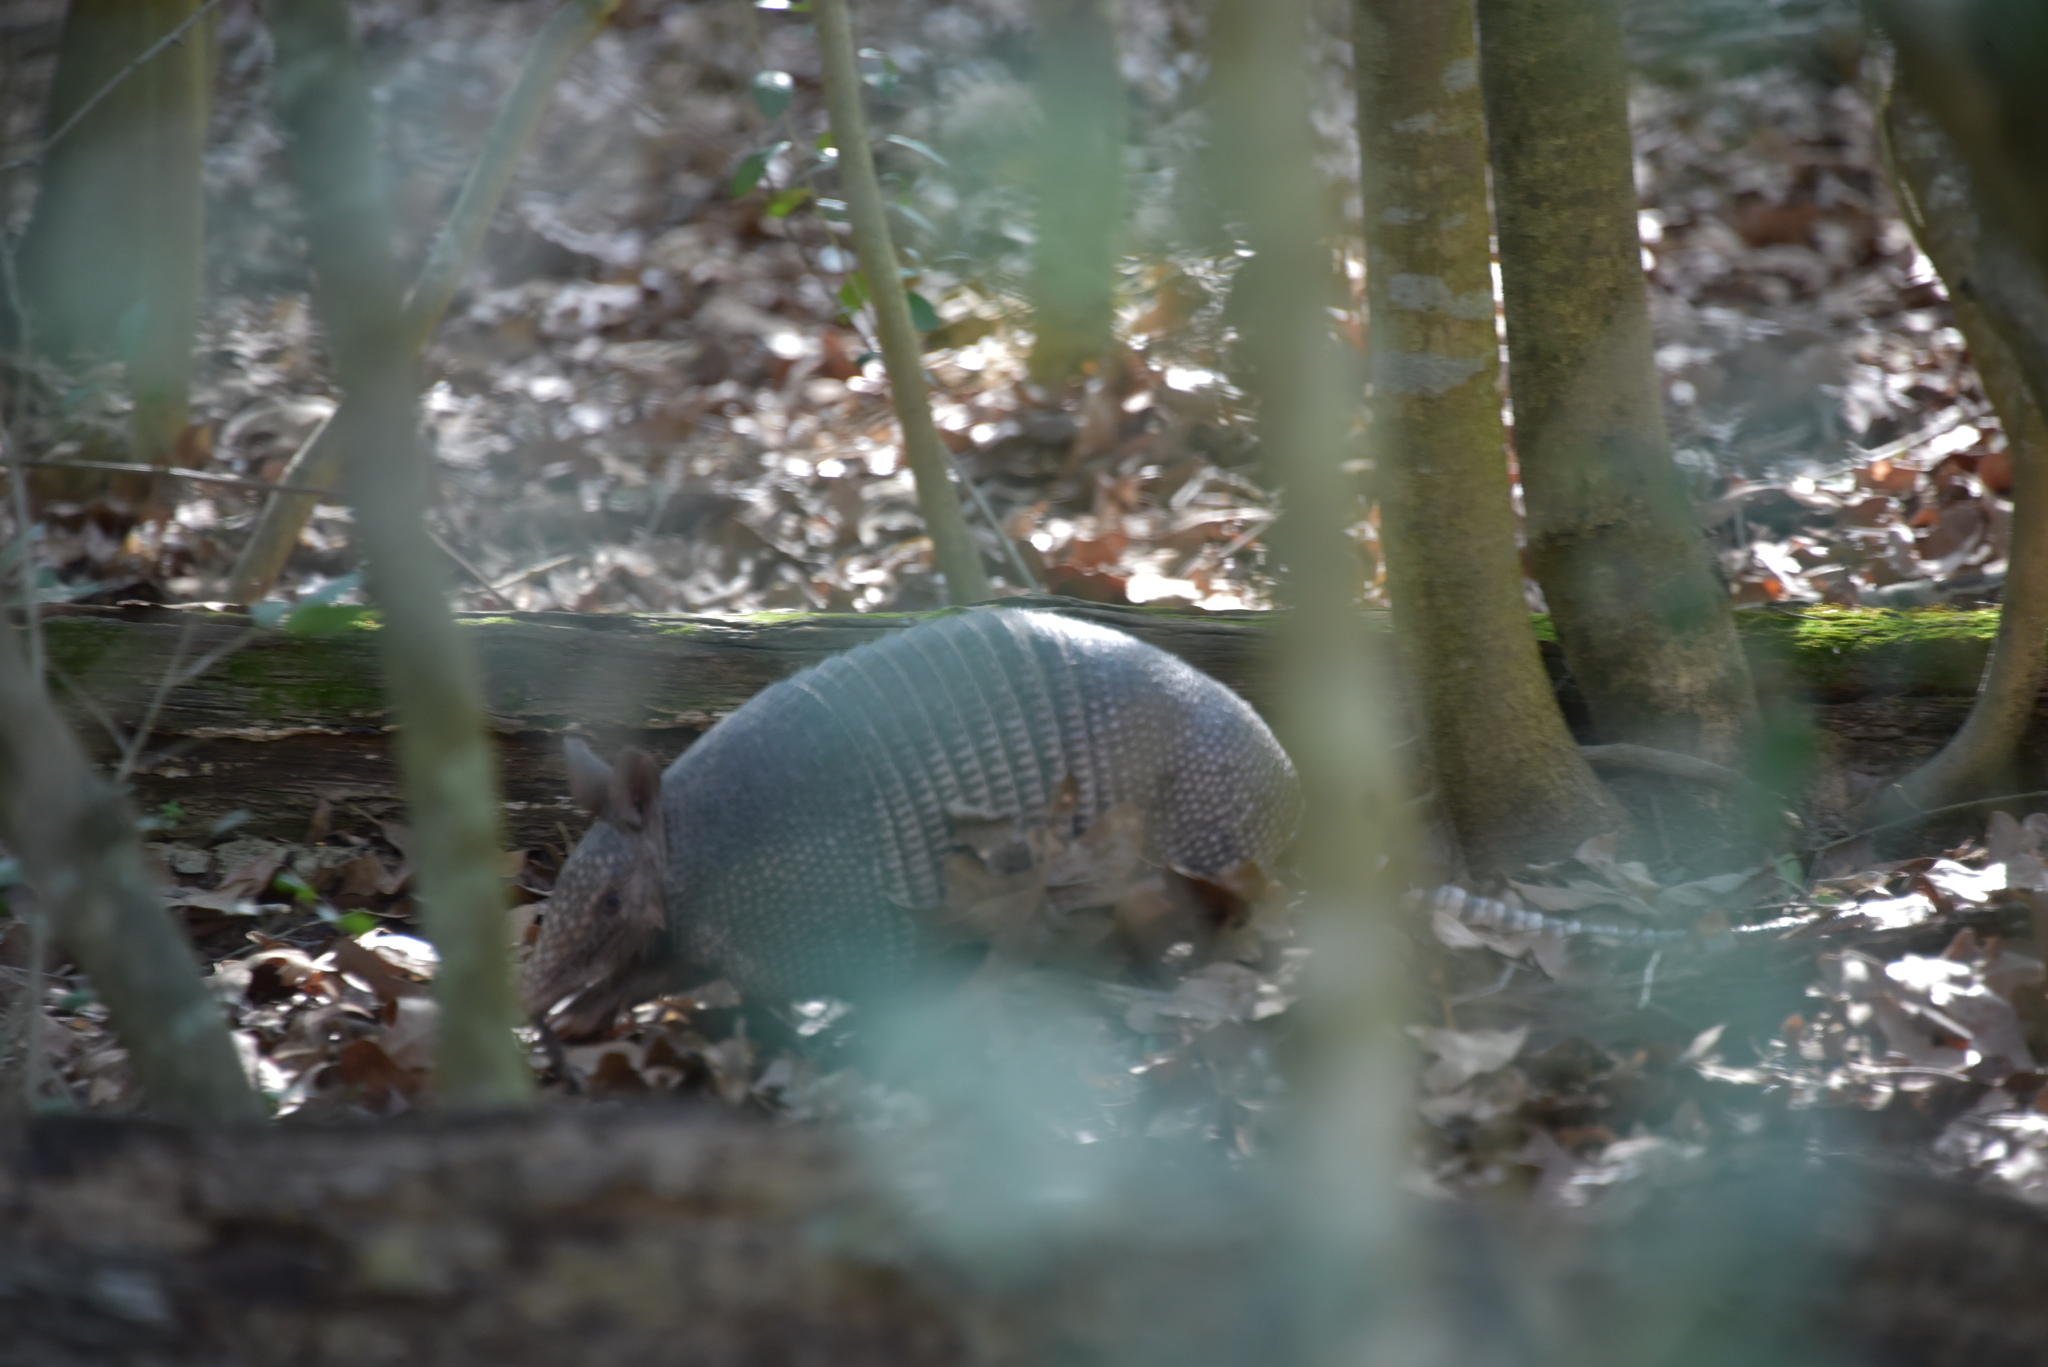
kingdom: Animalia
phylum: Chordata
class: Mammalia
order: Cingulata
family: Dasypodidae
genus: Dasypus
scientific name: Dasypus novemcinctus
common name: Nine-banded armadillo
